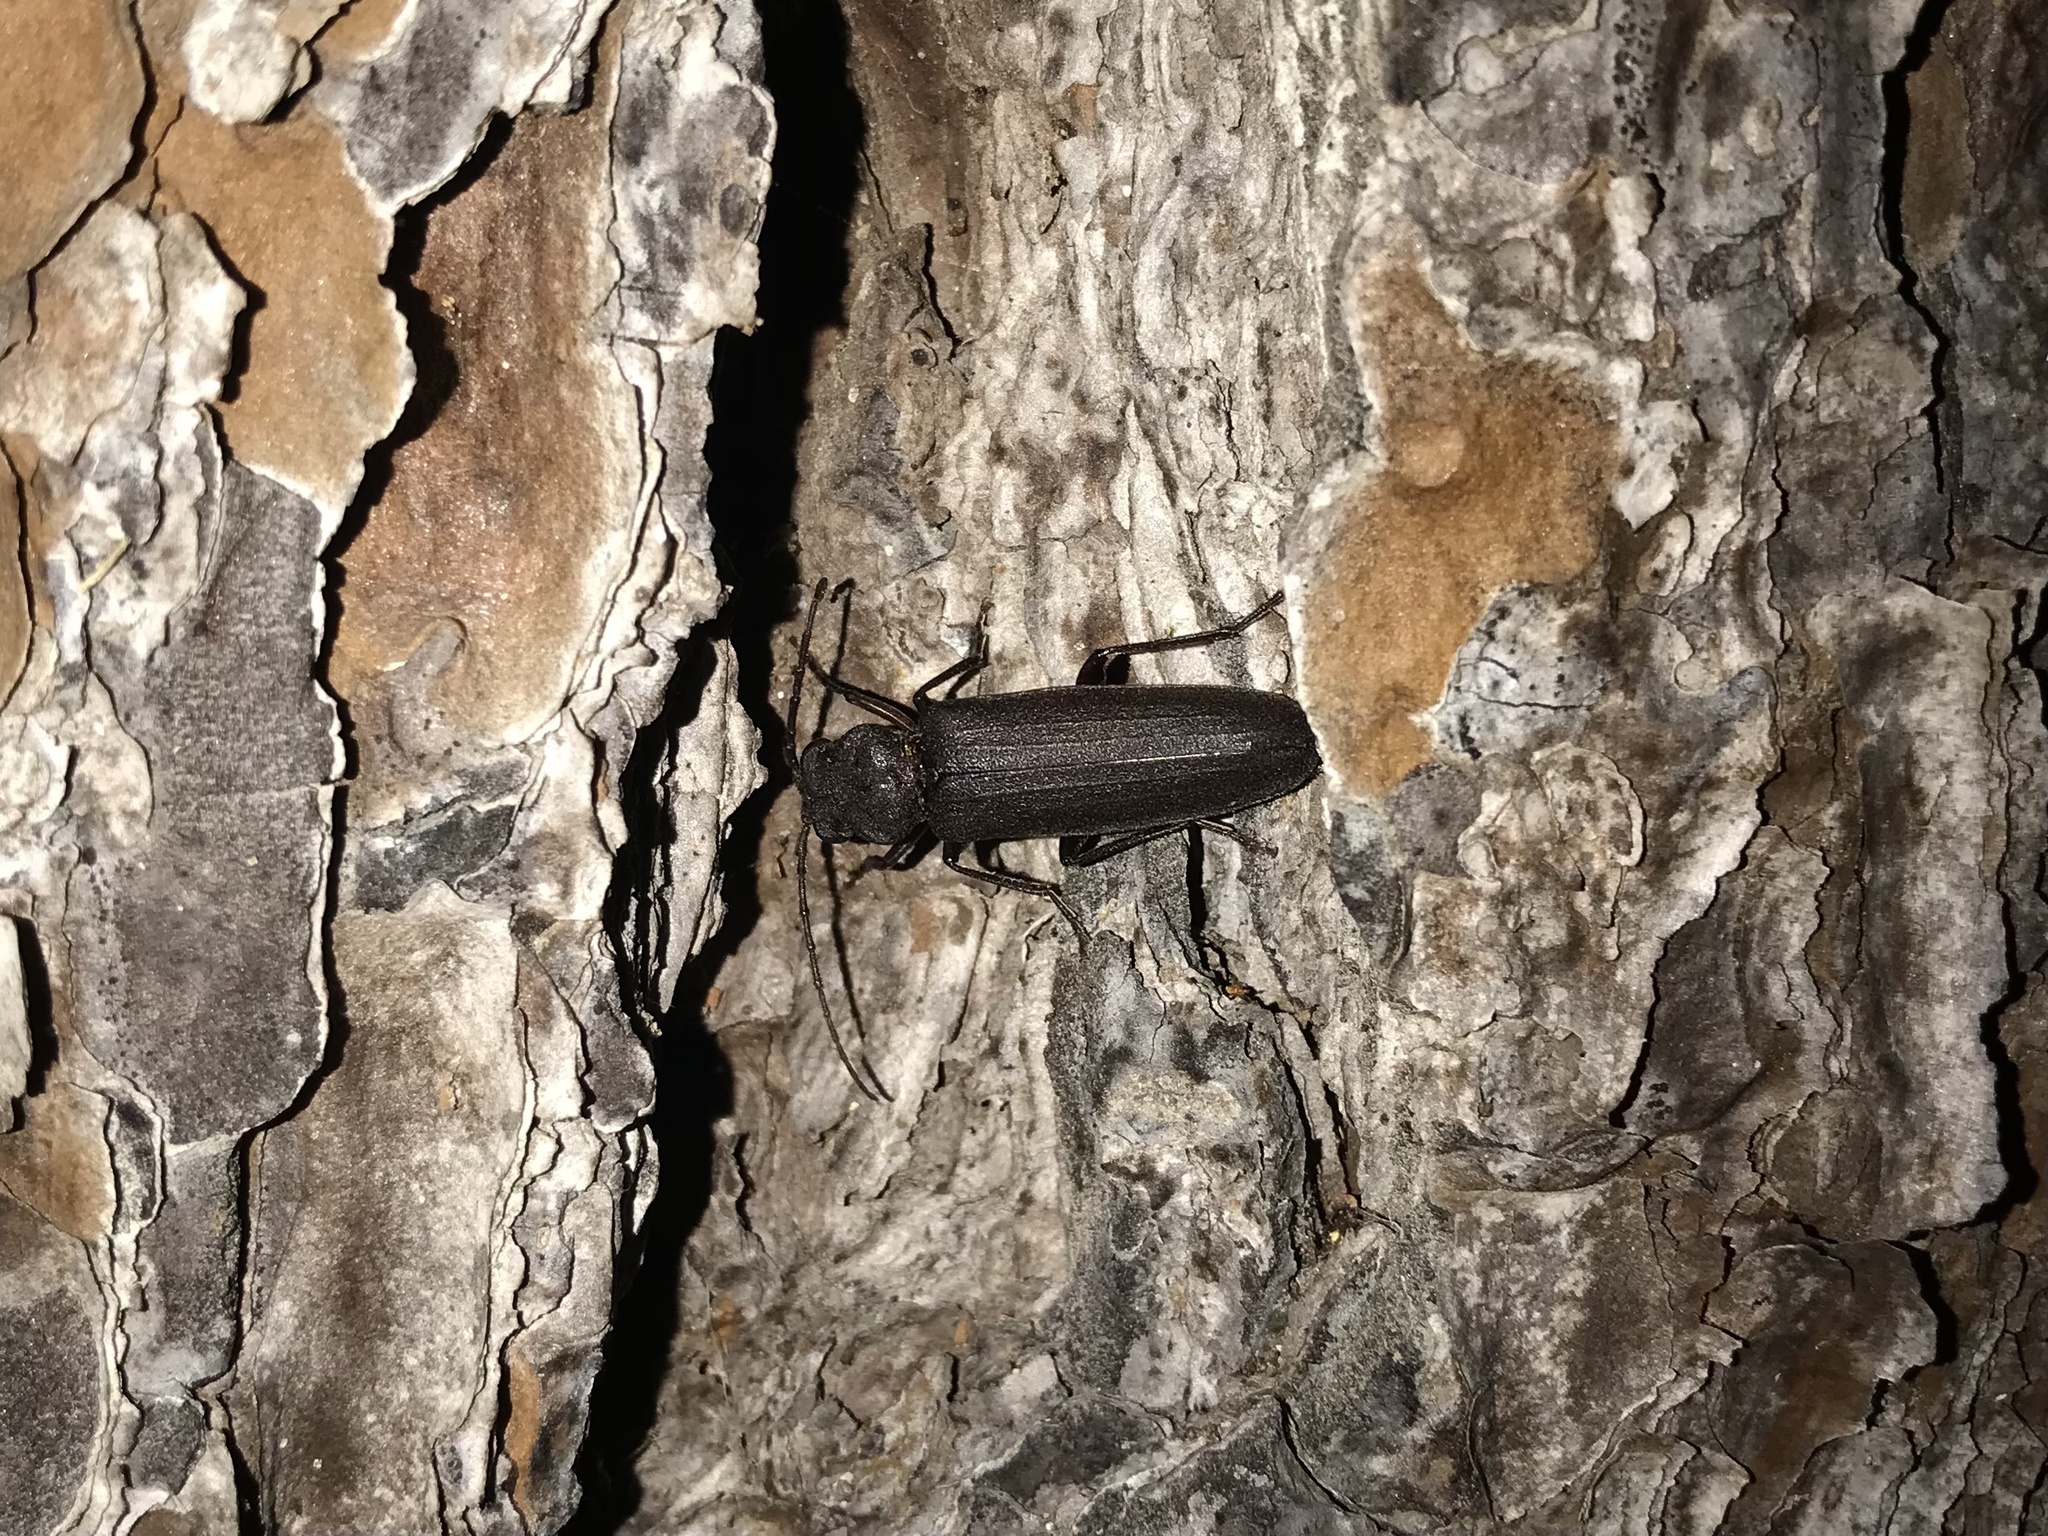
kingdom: Animalia
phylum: Arthropoda
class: Insecta
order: Coleoptera
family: Cerambycidae
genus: Arhopalus
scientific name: Arhopalus rusticus
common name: Rust pine borer
